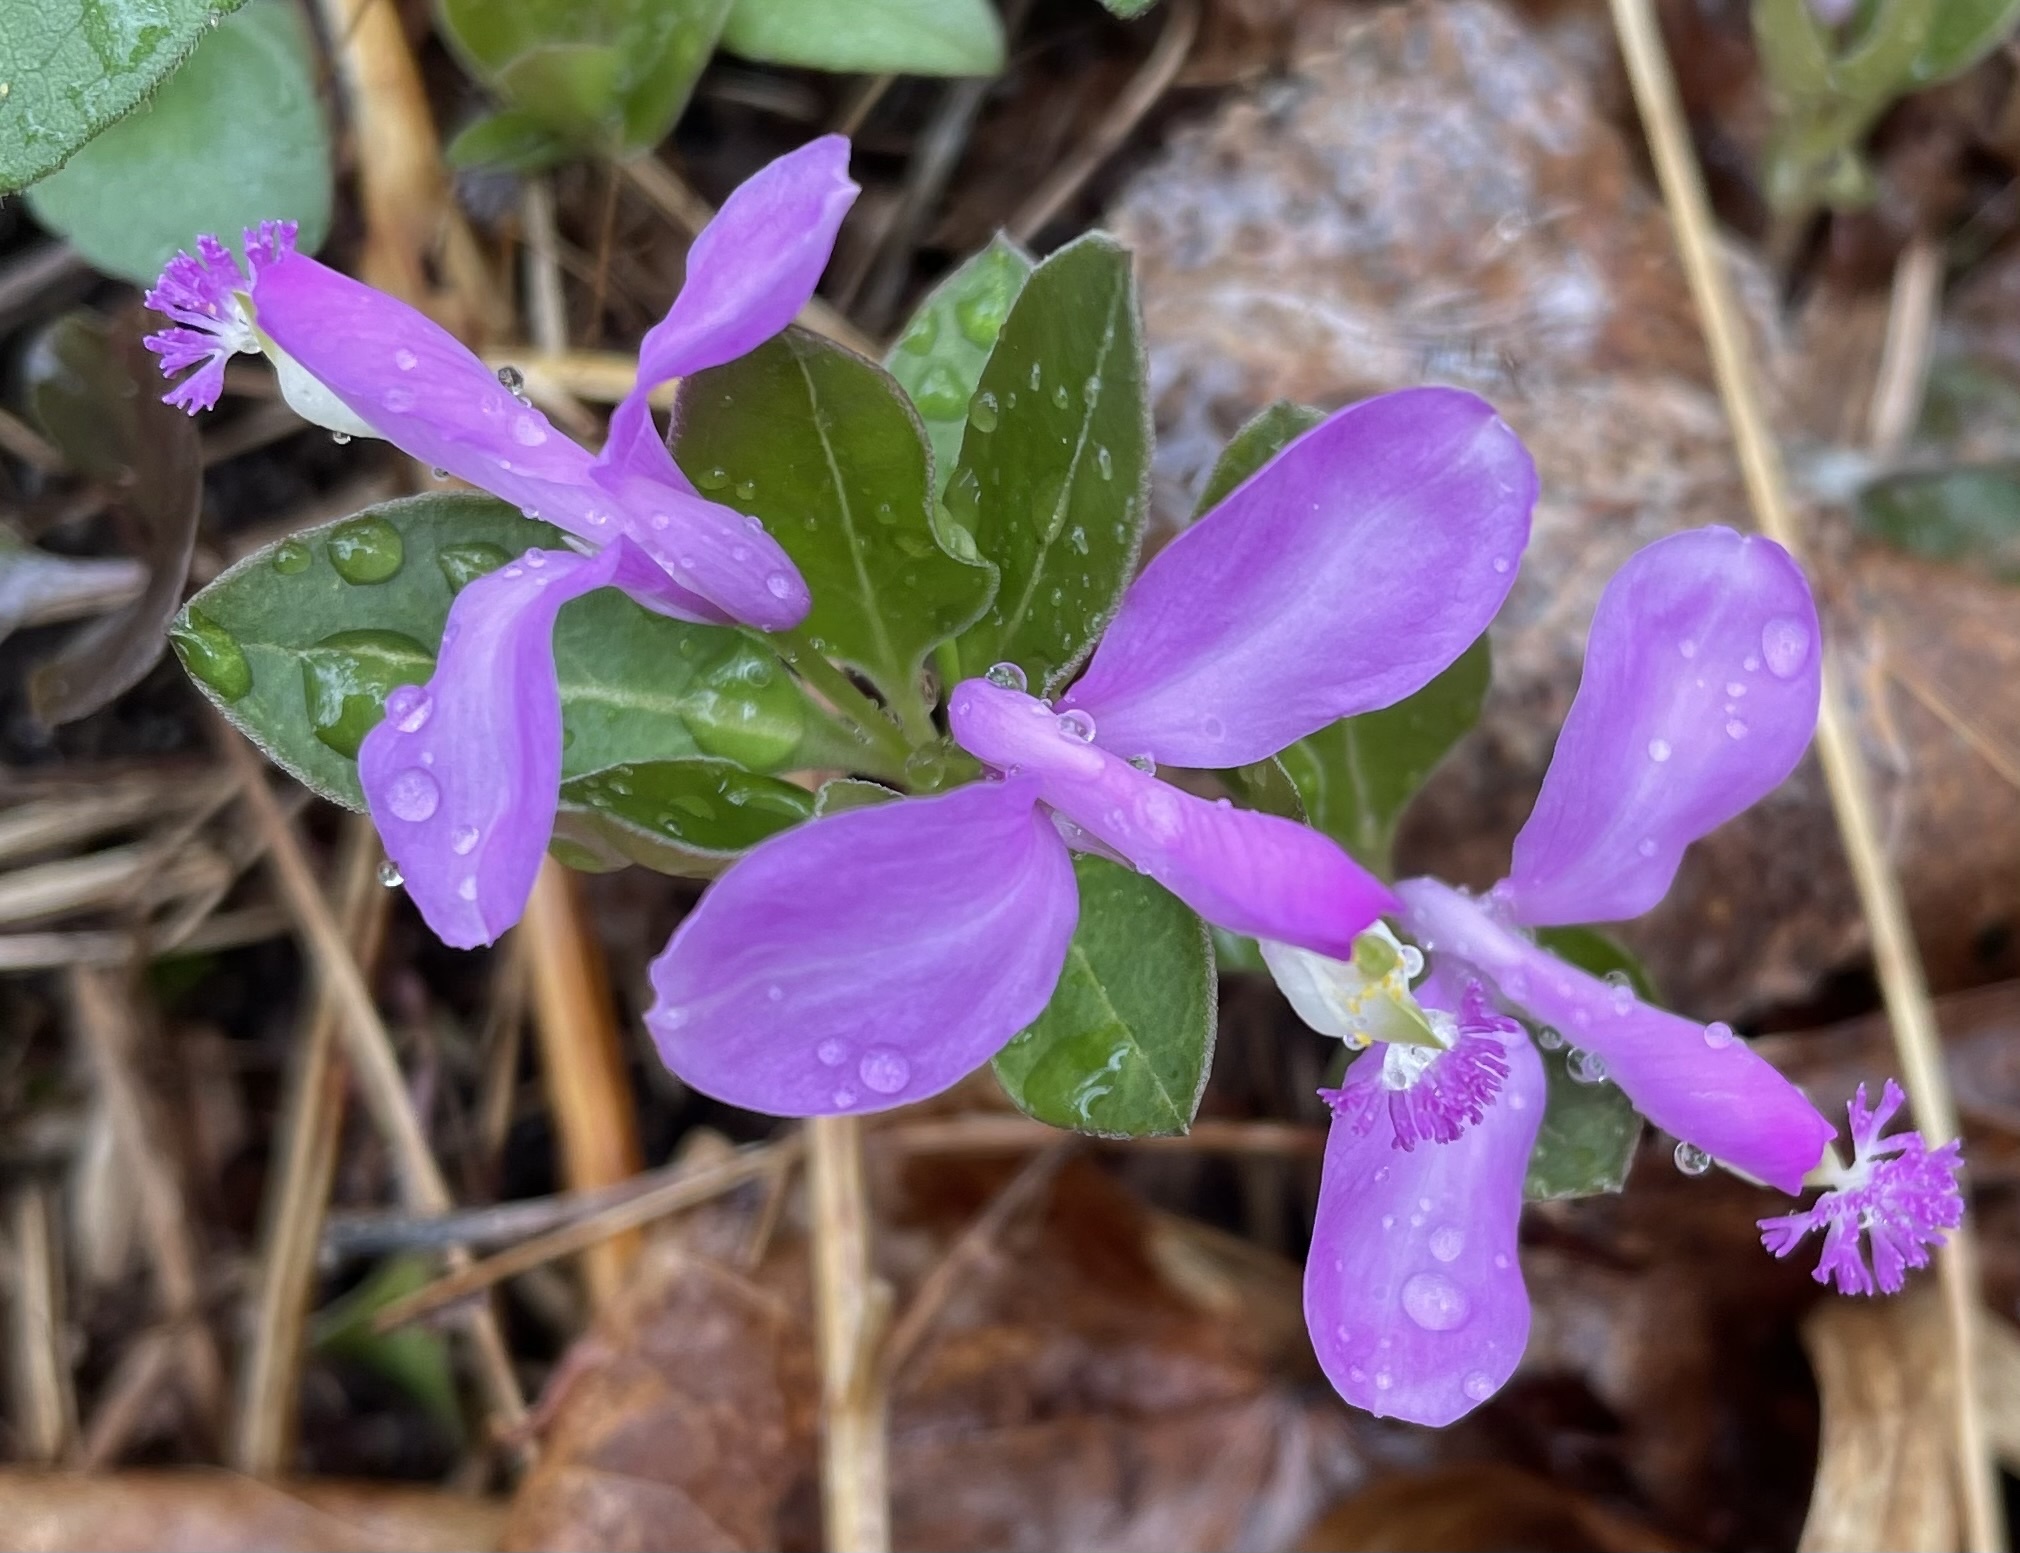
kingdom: Plantae
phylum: Tracheophyta
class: Magnoliopsida
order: Fabales
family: Polygalaceae
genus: Polygaloides
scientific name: Polygaloides paucifolia
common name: Bird-on-the-wing
